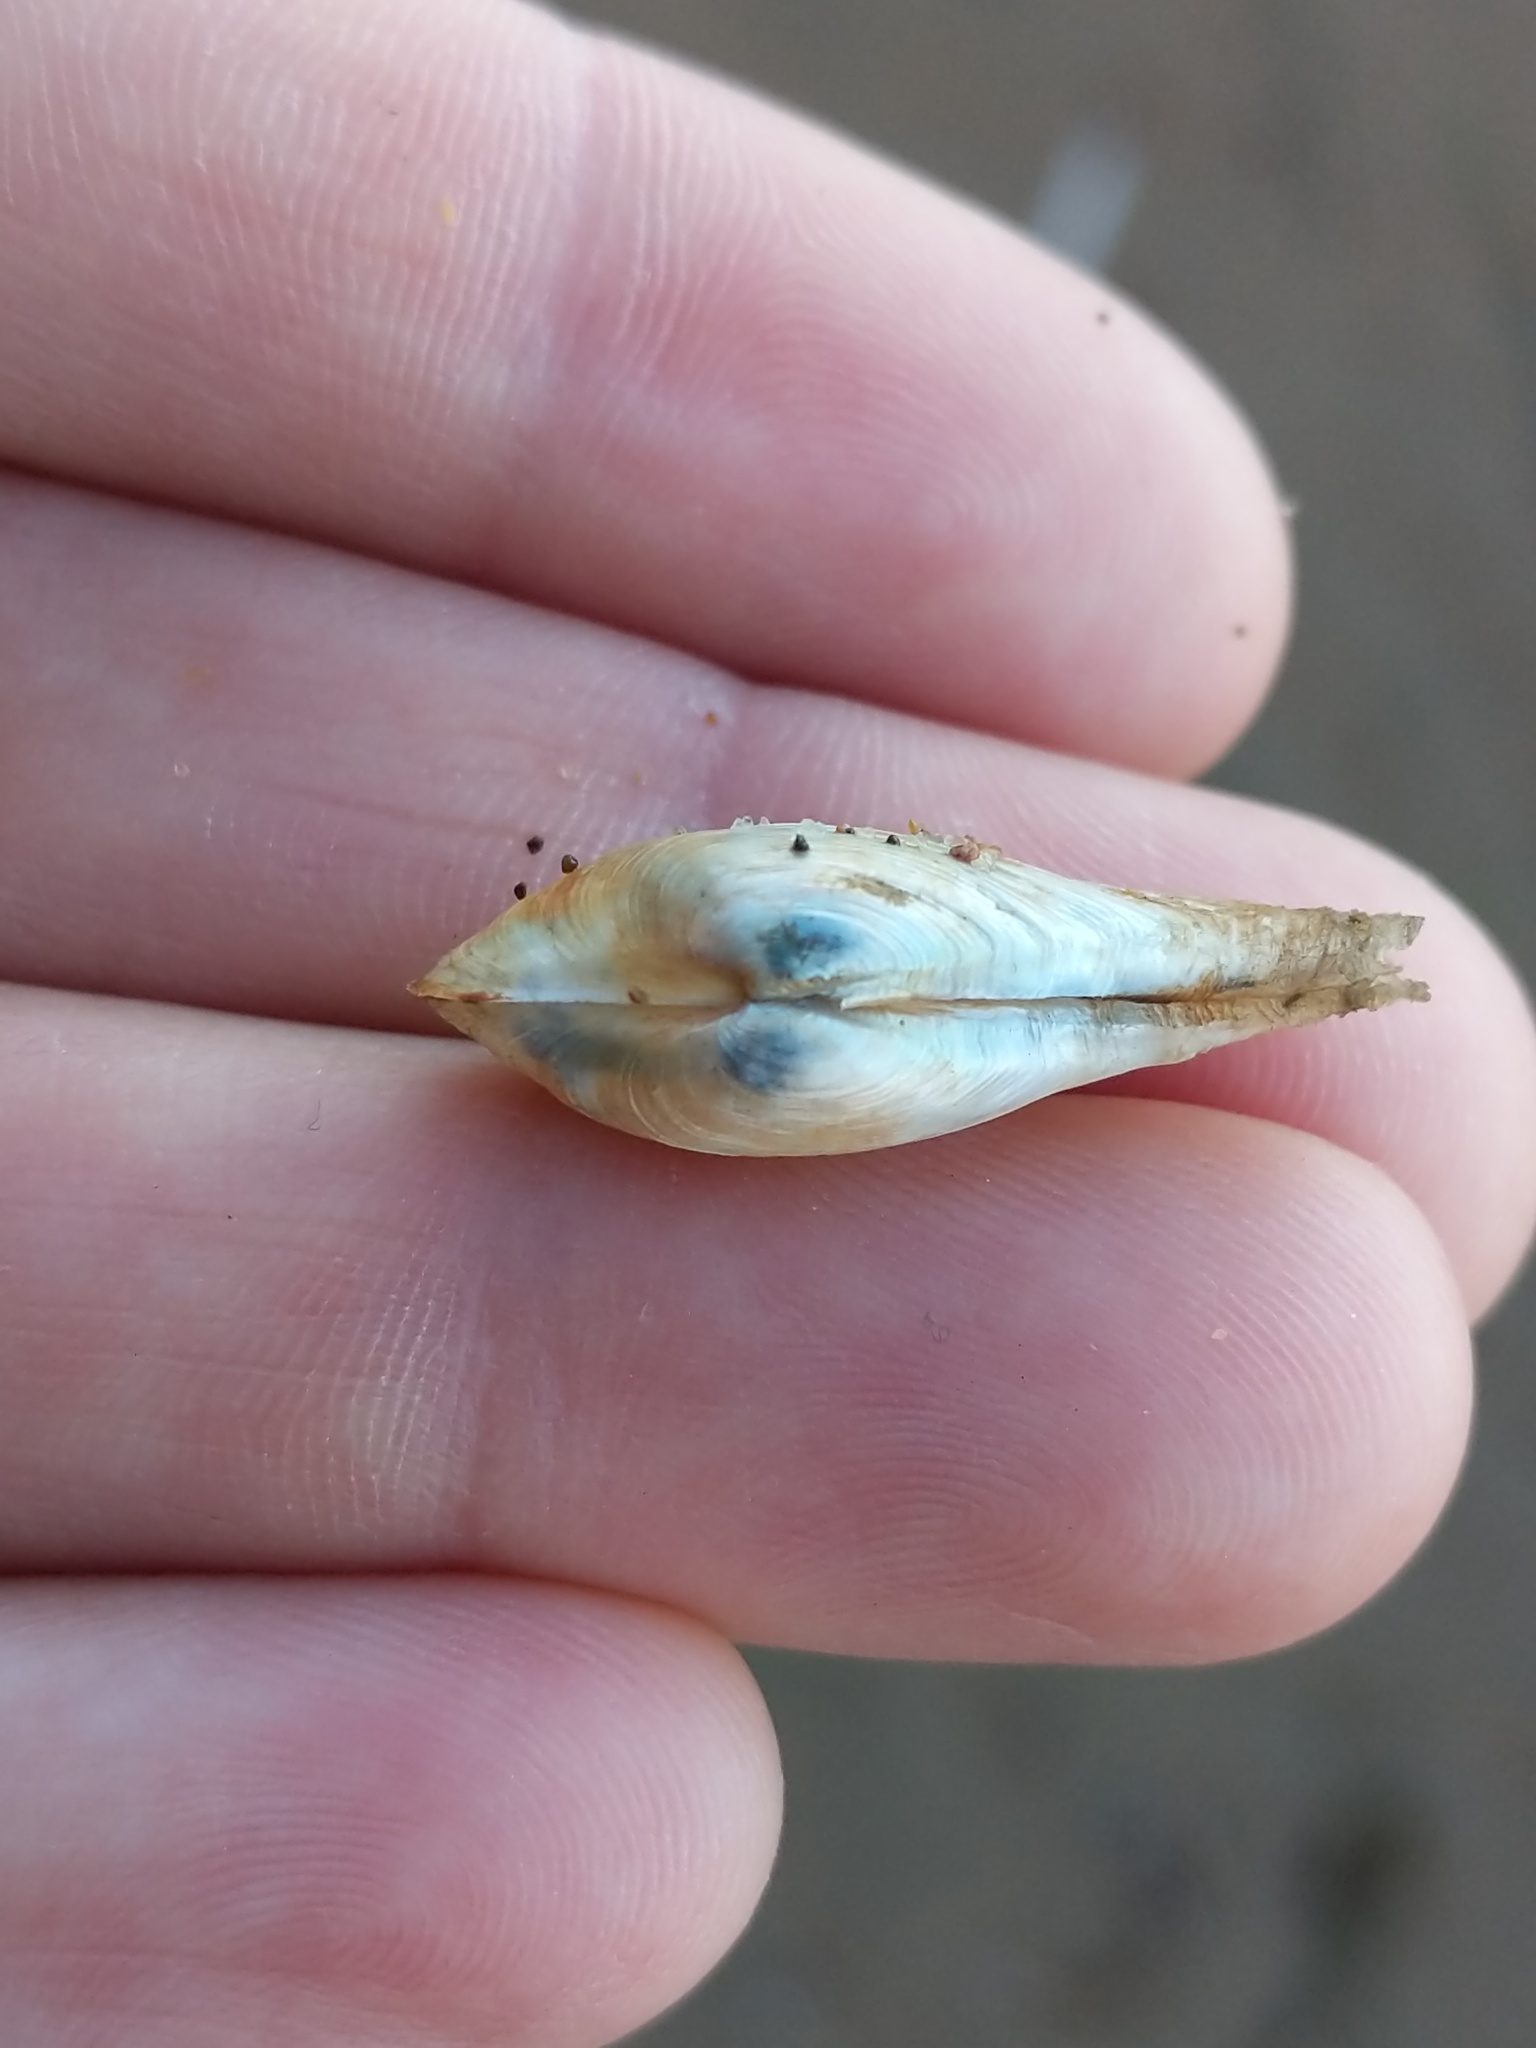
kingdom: Animalia
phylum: Mollusca
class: Bivalvia
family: Lyonsiidae
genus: Lyonsia
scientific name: Lyonsia californica
